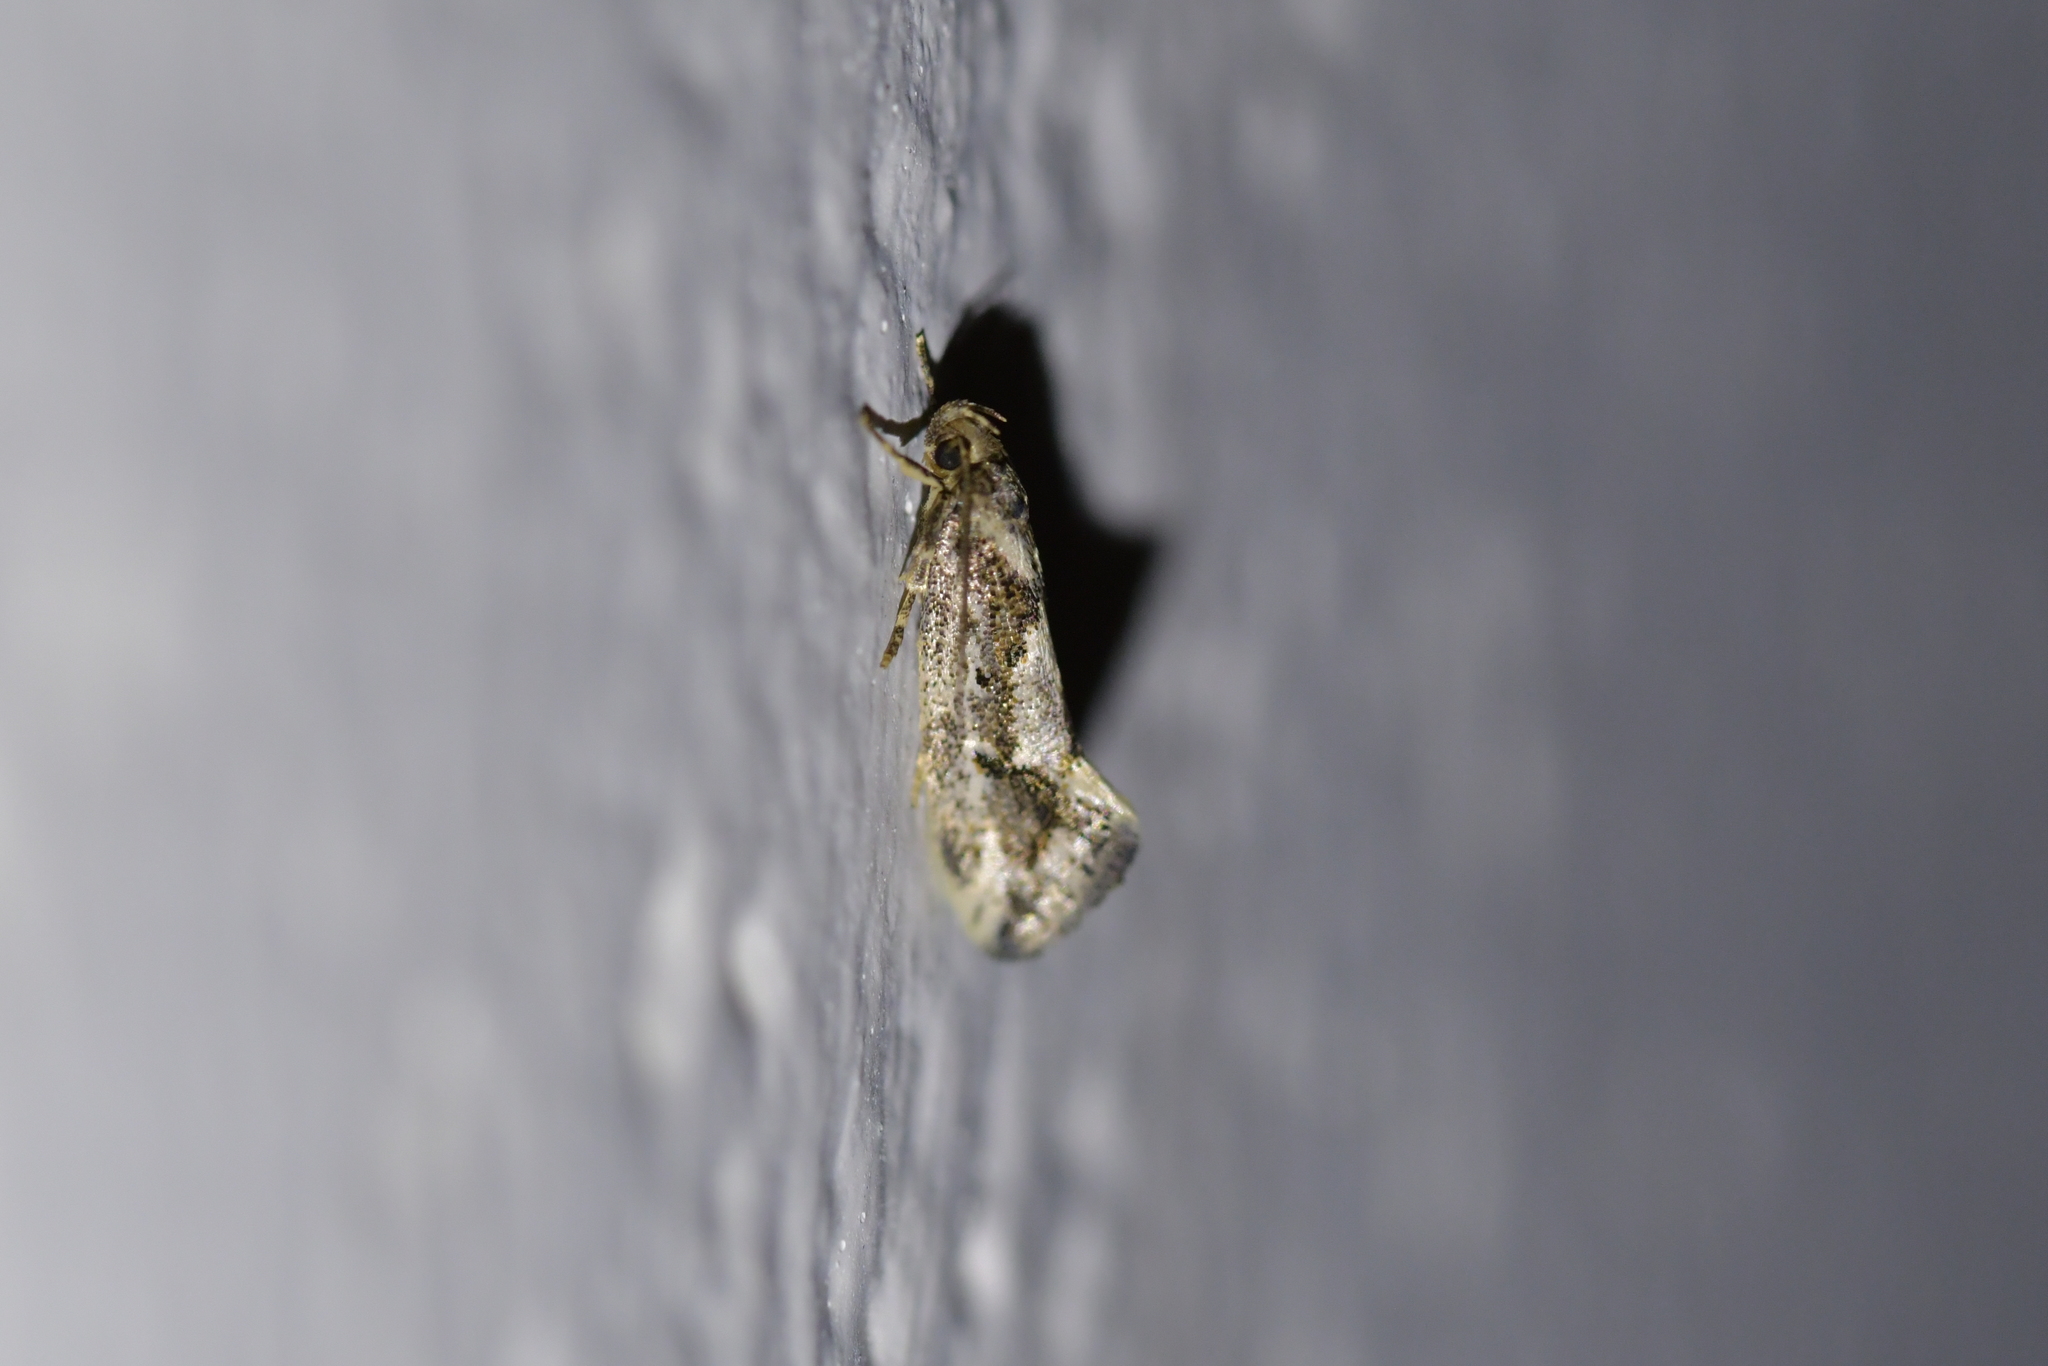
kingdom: Animalia
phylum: Arthropoda
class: Insecta
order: Lepidoptera
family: Oecophoridae
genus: Tingena
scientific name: Tingena hemimochla
